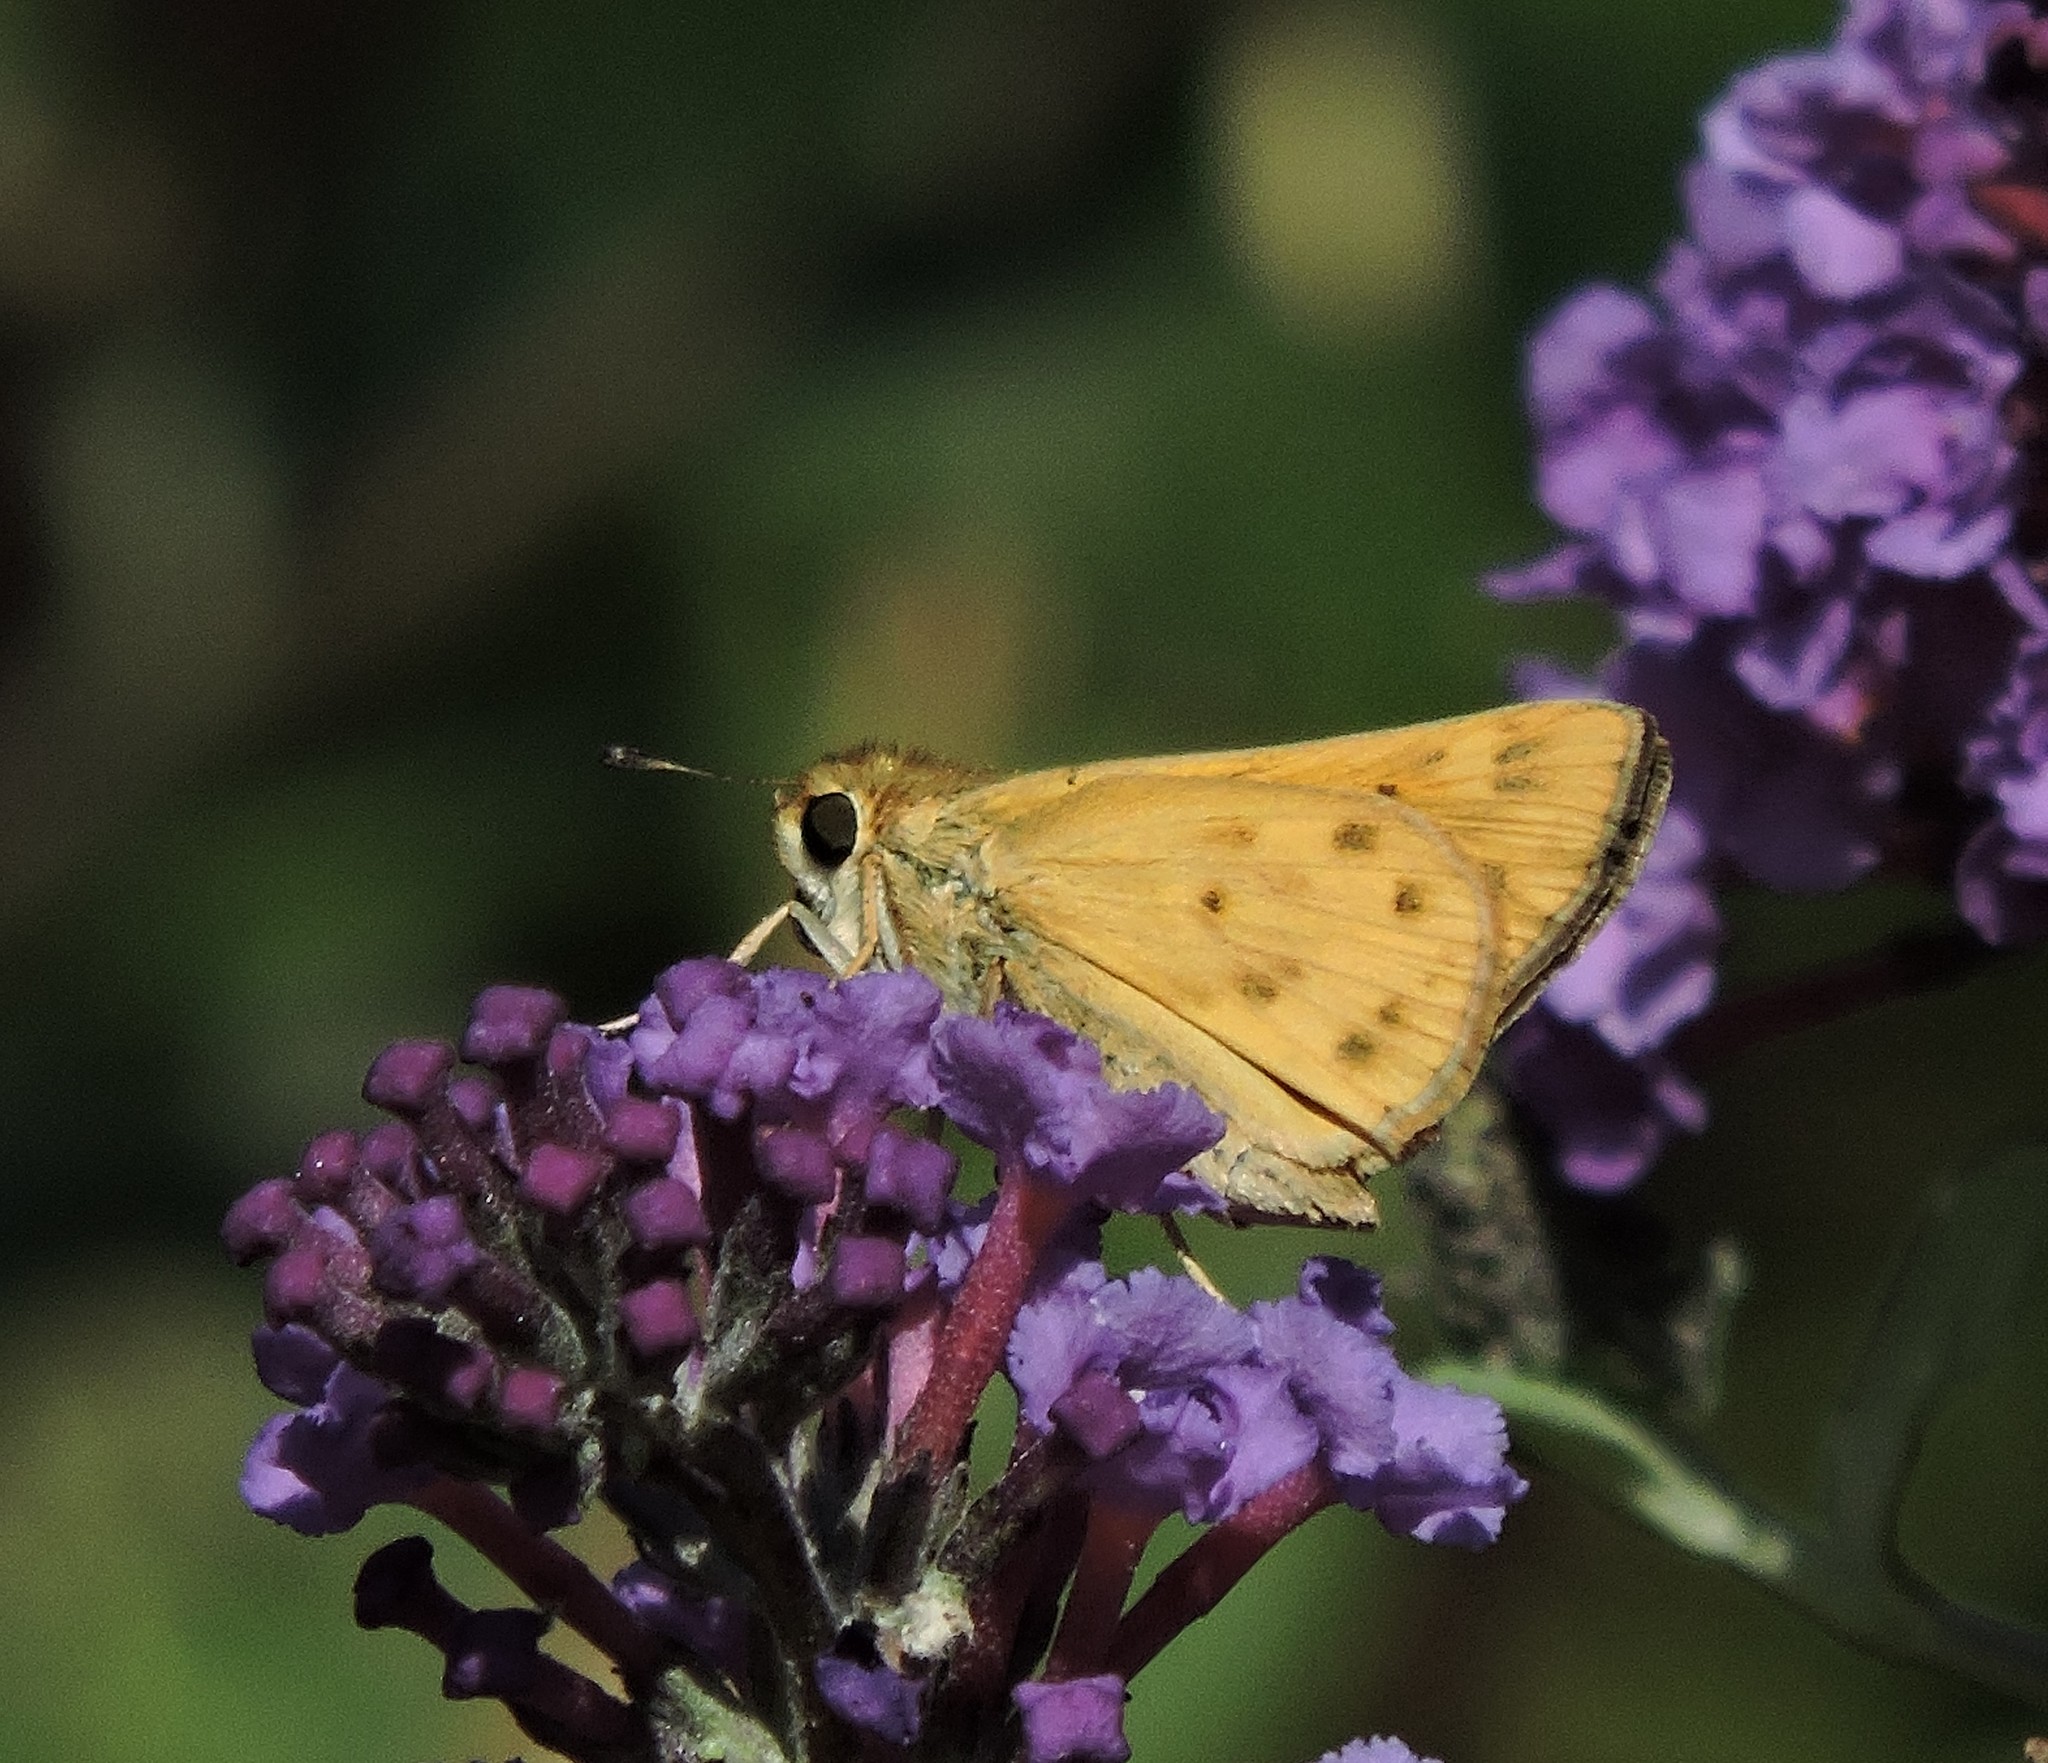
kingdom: Animalia
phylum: Arthropoda
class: Insecta
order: Lepidoptera
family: Hesperiidae
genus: Hylephila
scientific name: Hylephila phyleus
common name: Fiery skipper
